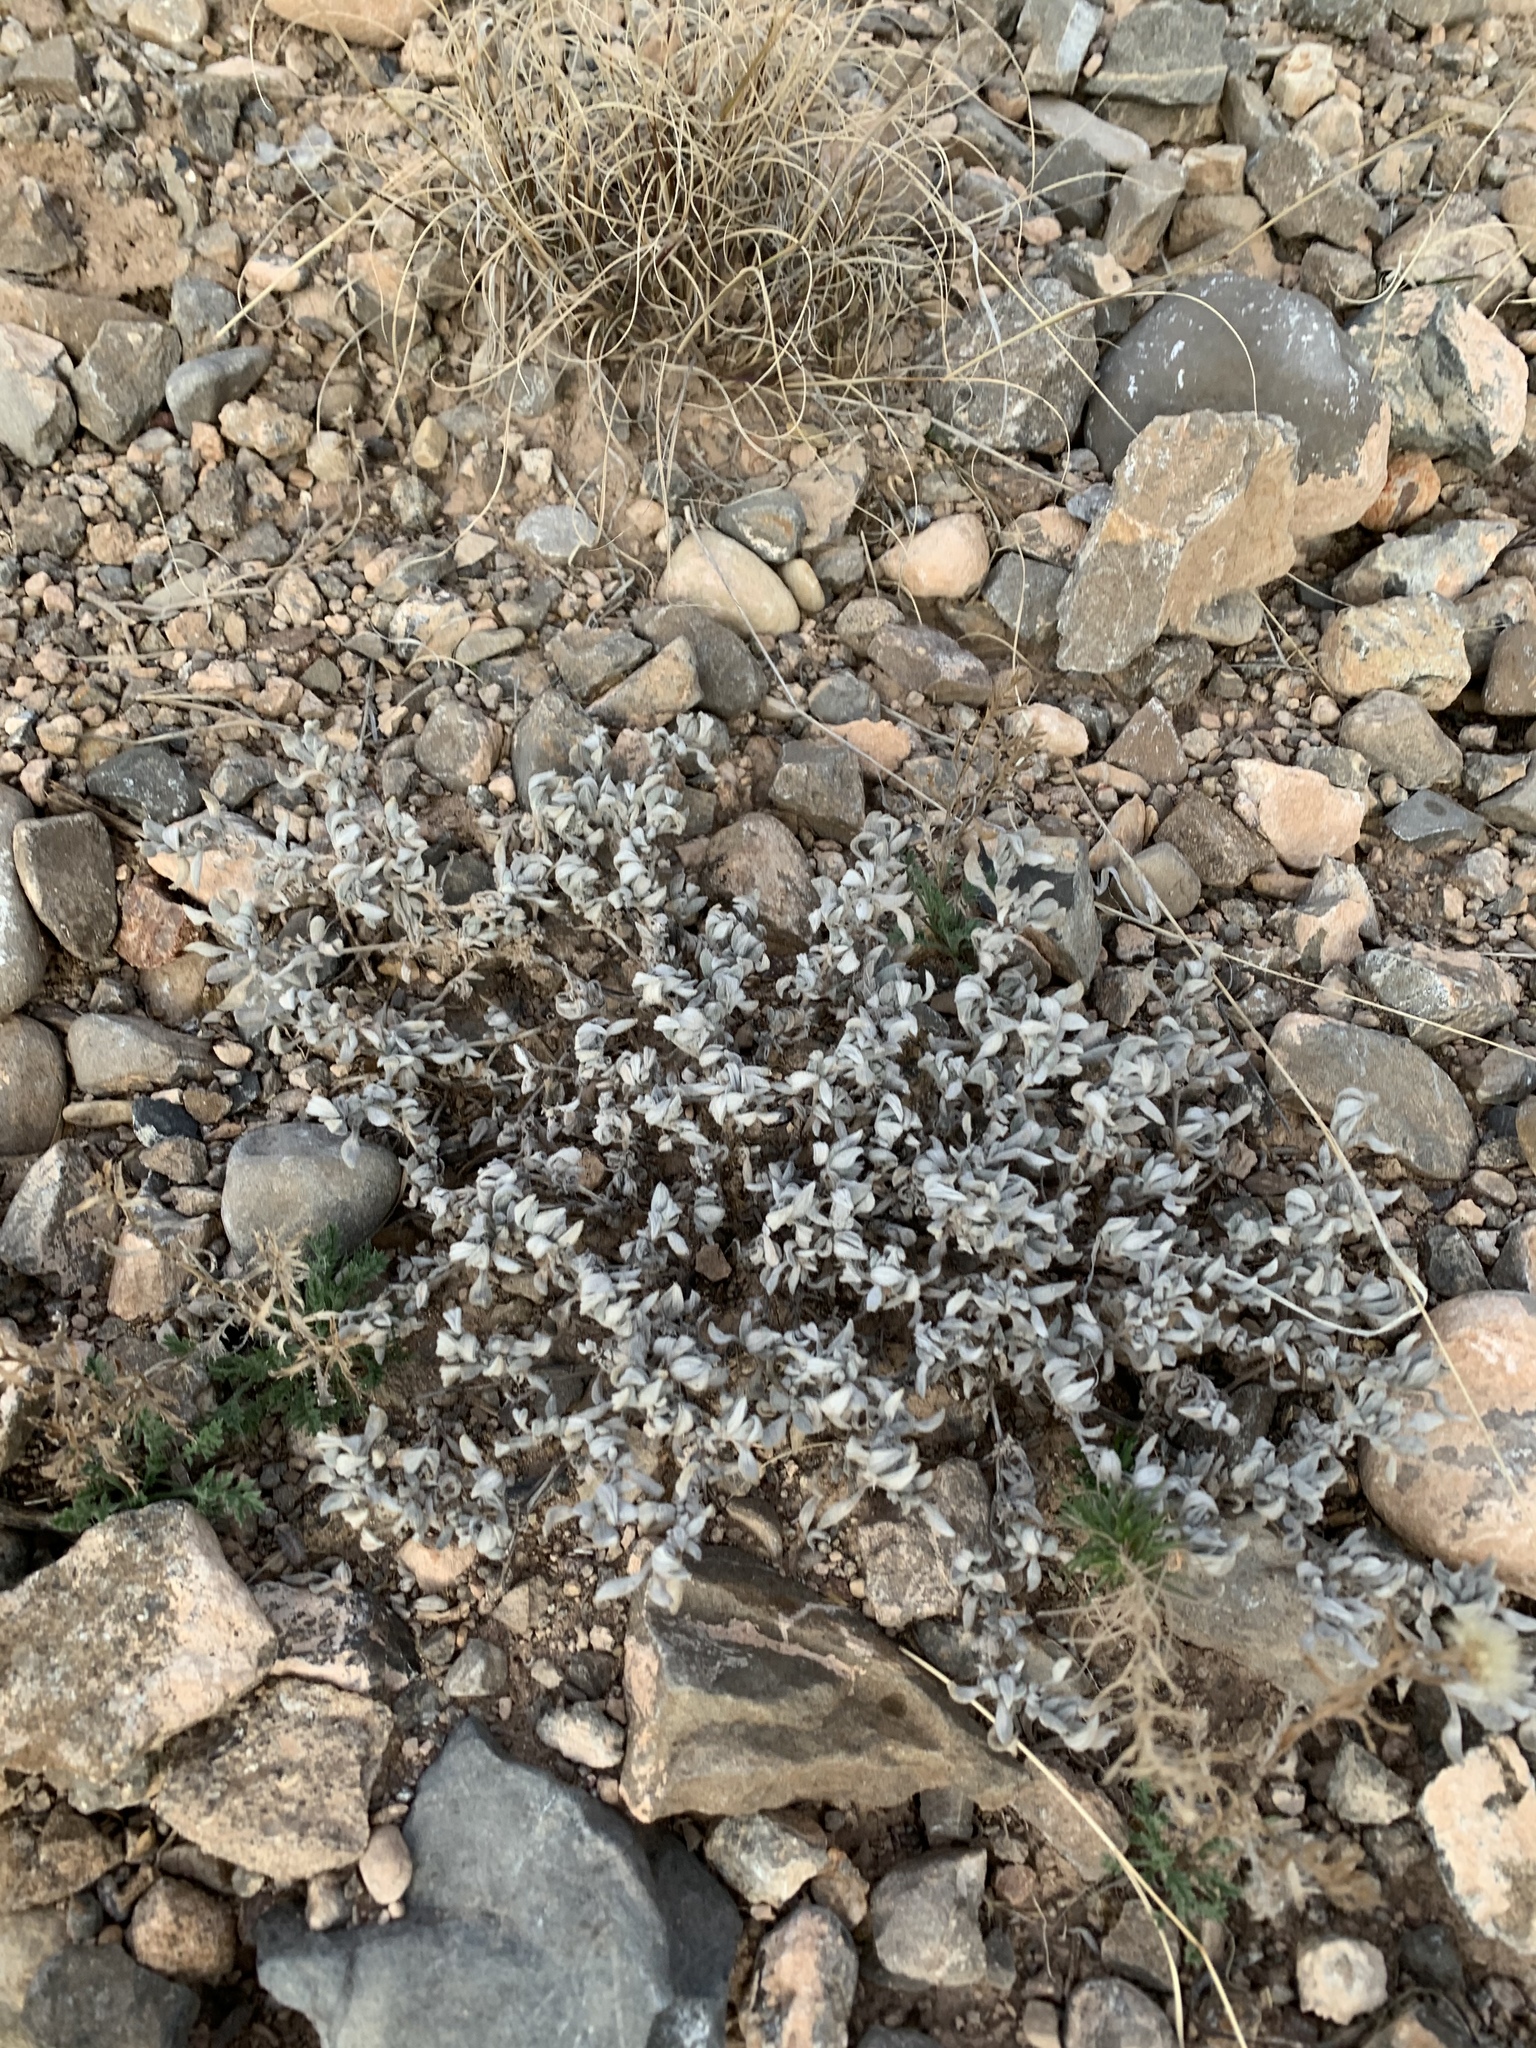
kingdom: Plantae
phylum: Tracheophyta
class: Magnoliopsida
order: Boraginales
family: Ehretiaceae
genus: Tiquilia
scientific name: Tiquilia canescens
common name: Hairy tiquilia
